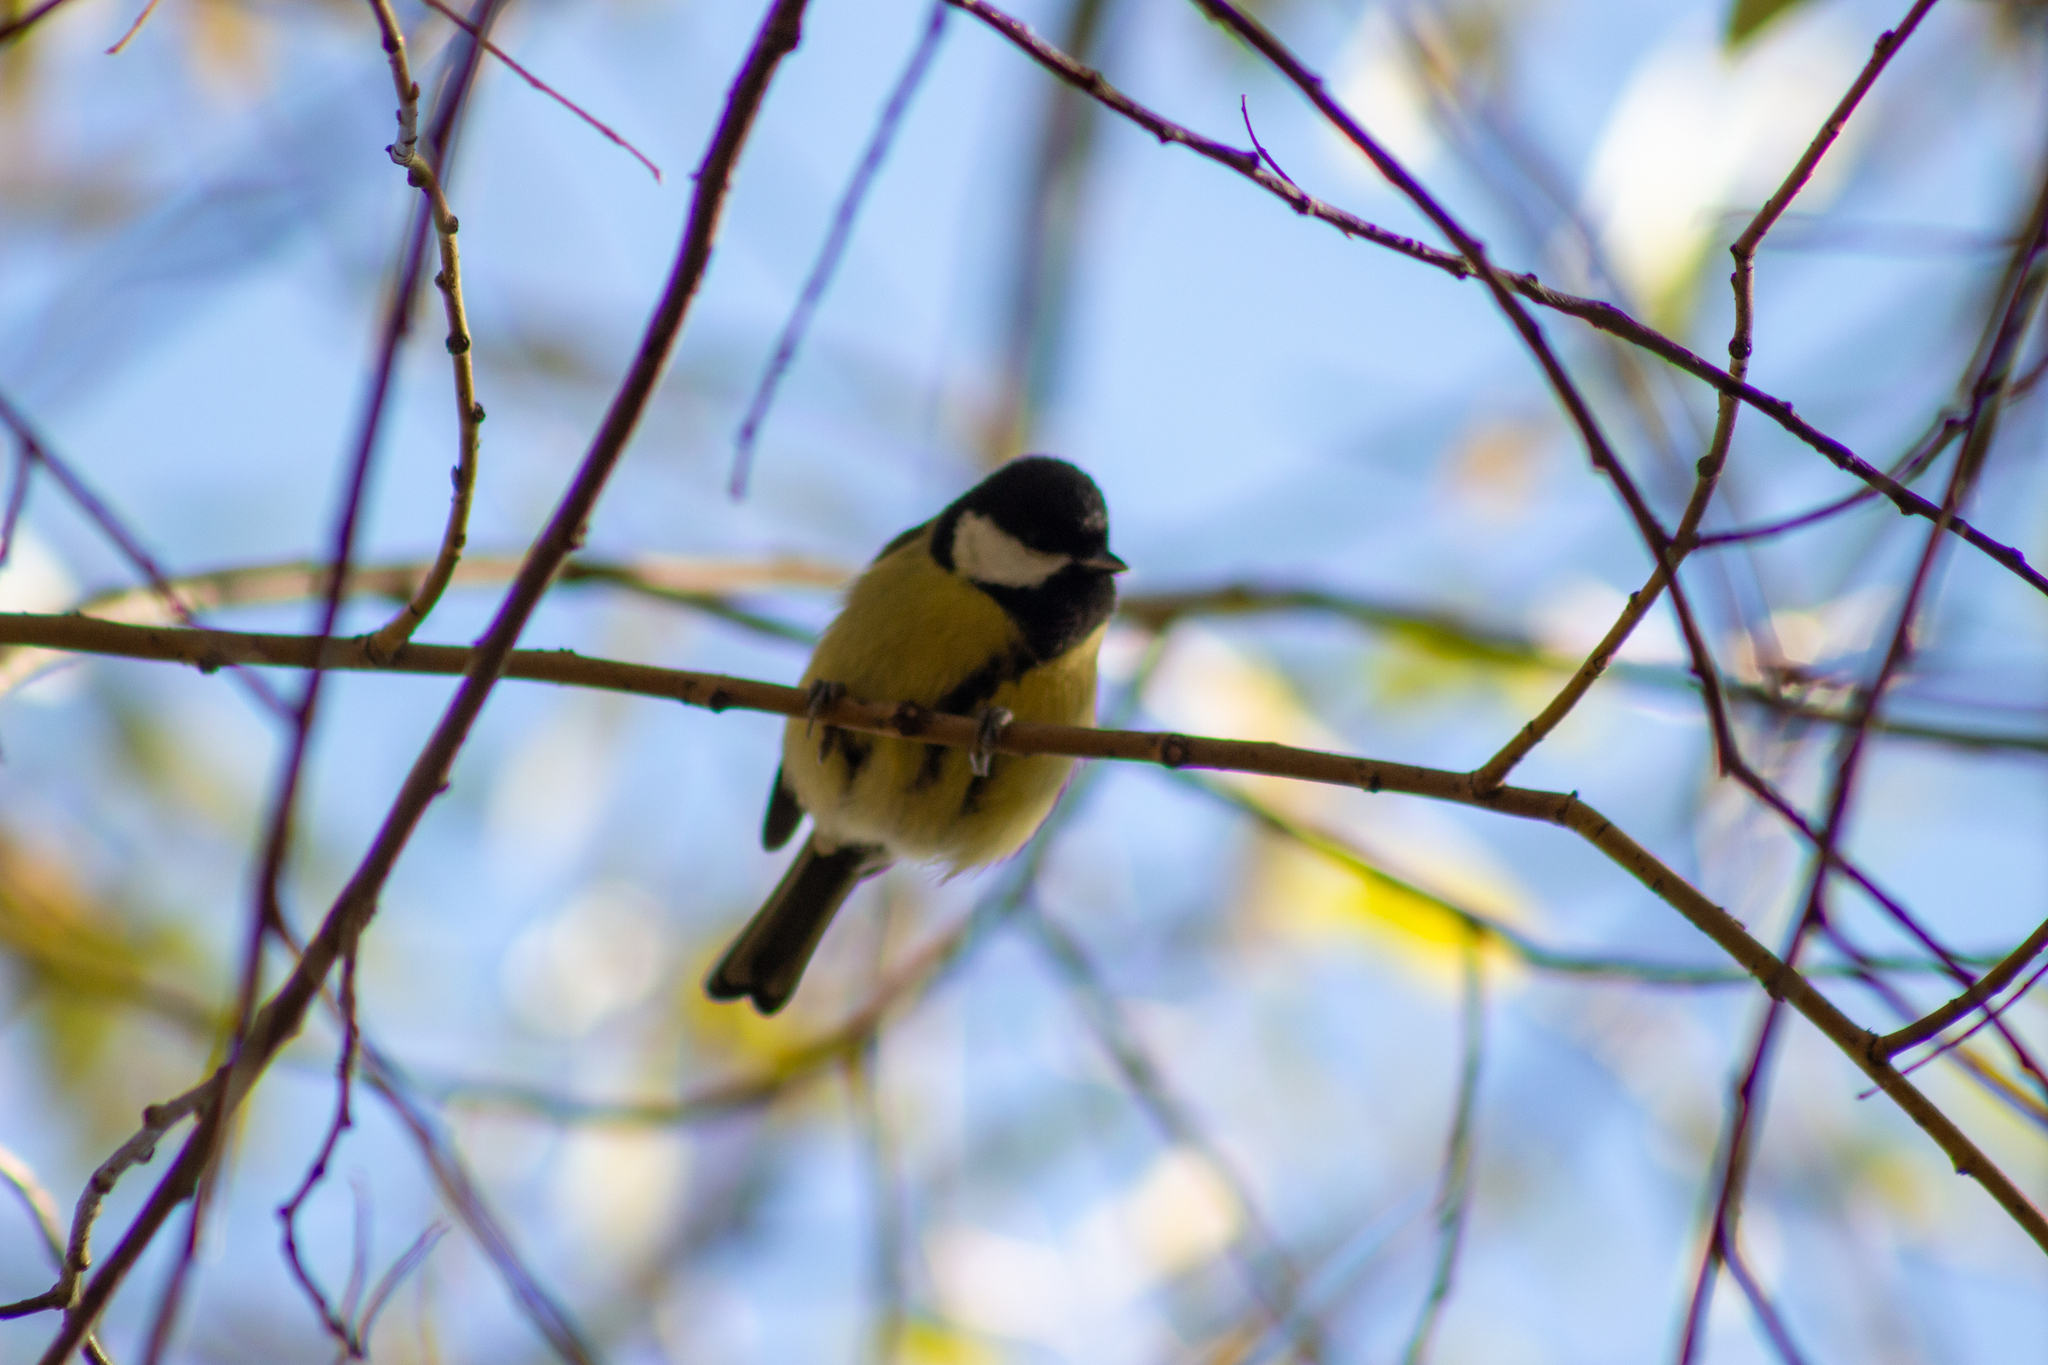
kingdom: Animalia
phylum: Chordata
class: Aves
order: Passeriformes
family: Paridae
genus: Parus
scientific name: Parus major
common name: Great tit
